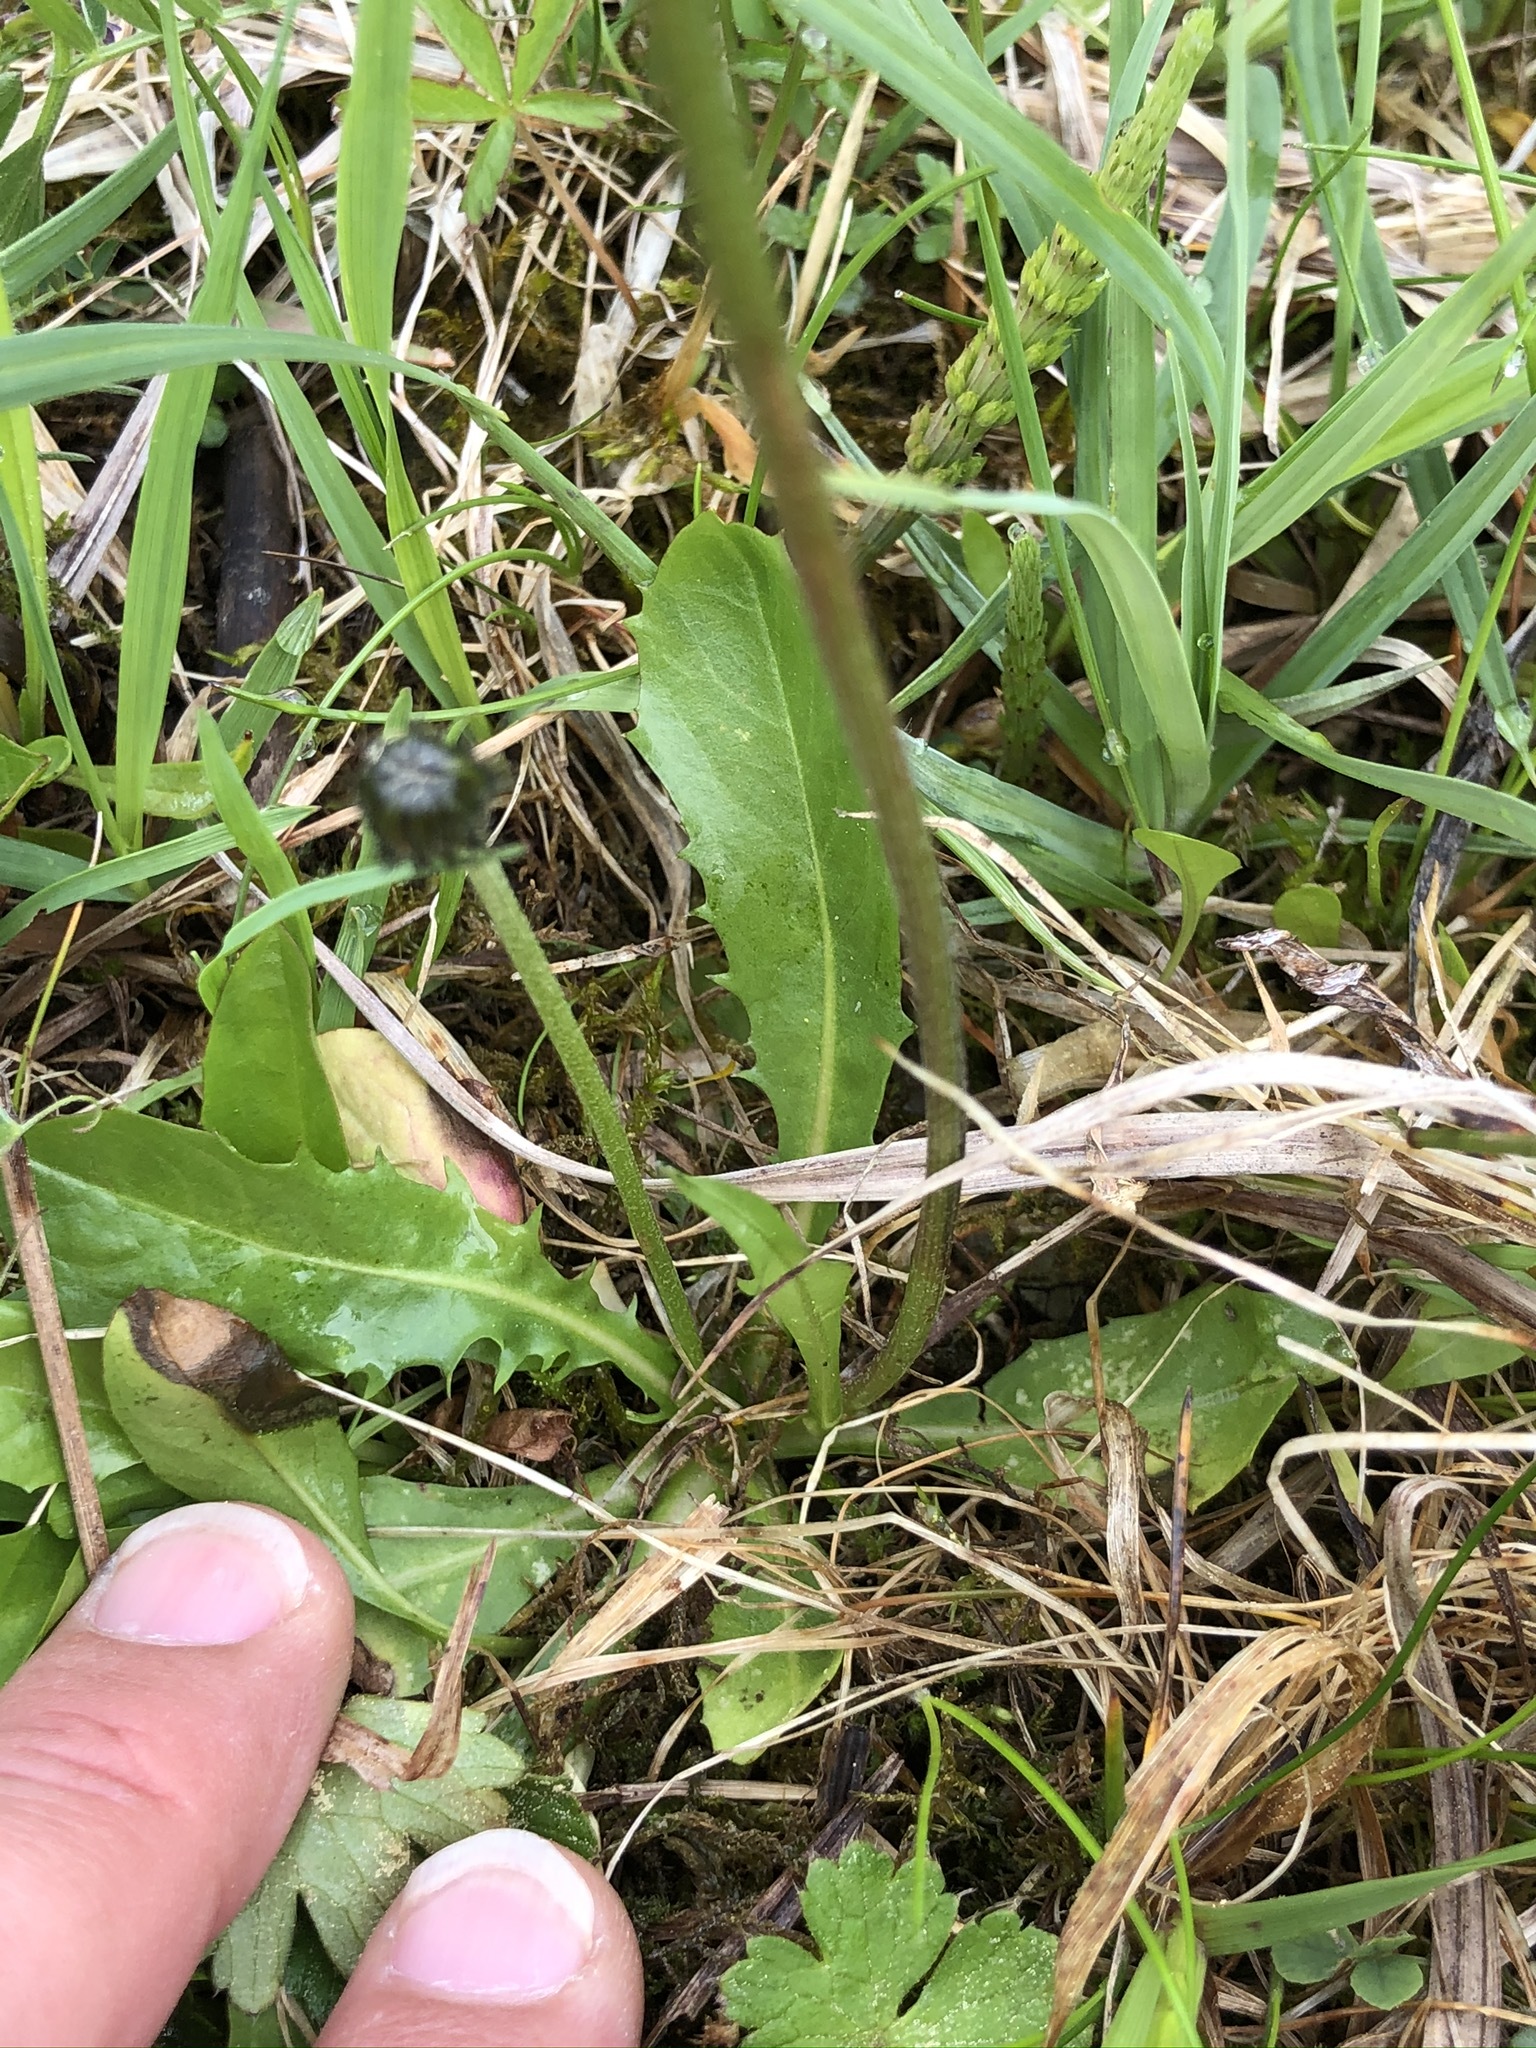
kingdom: Plantae
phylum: Tracheophyta
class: Magnoliopsida
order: Asterales
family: Asteraceae
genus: Crepis
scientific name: Crepis aurea
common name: Golden hawk's-beard
